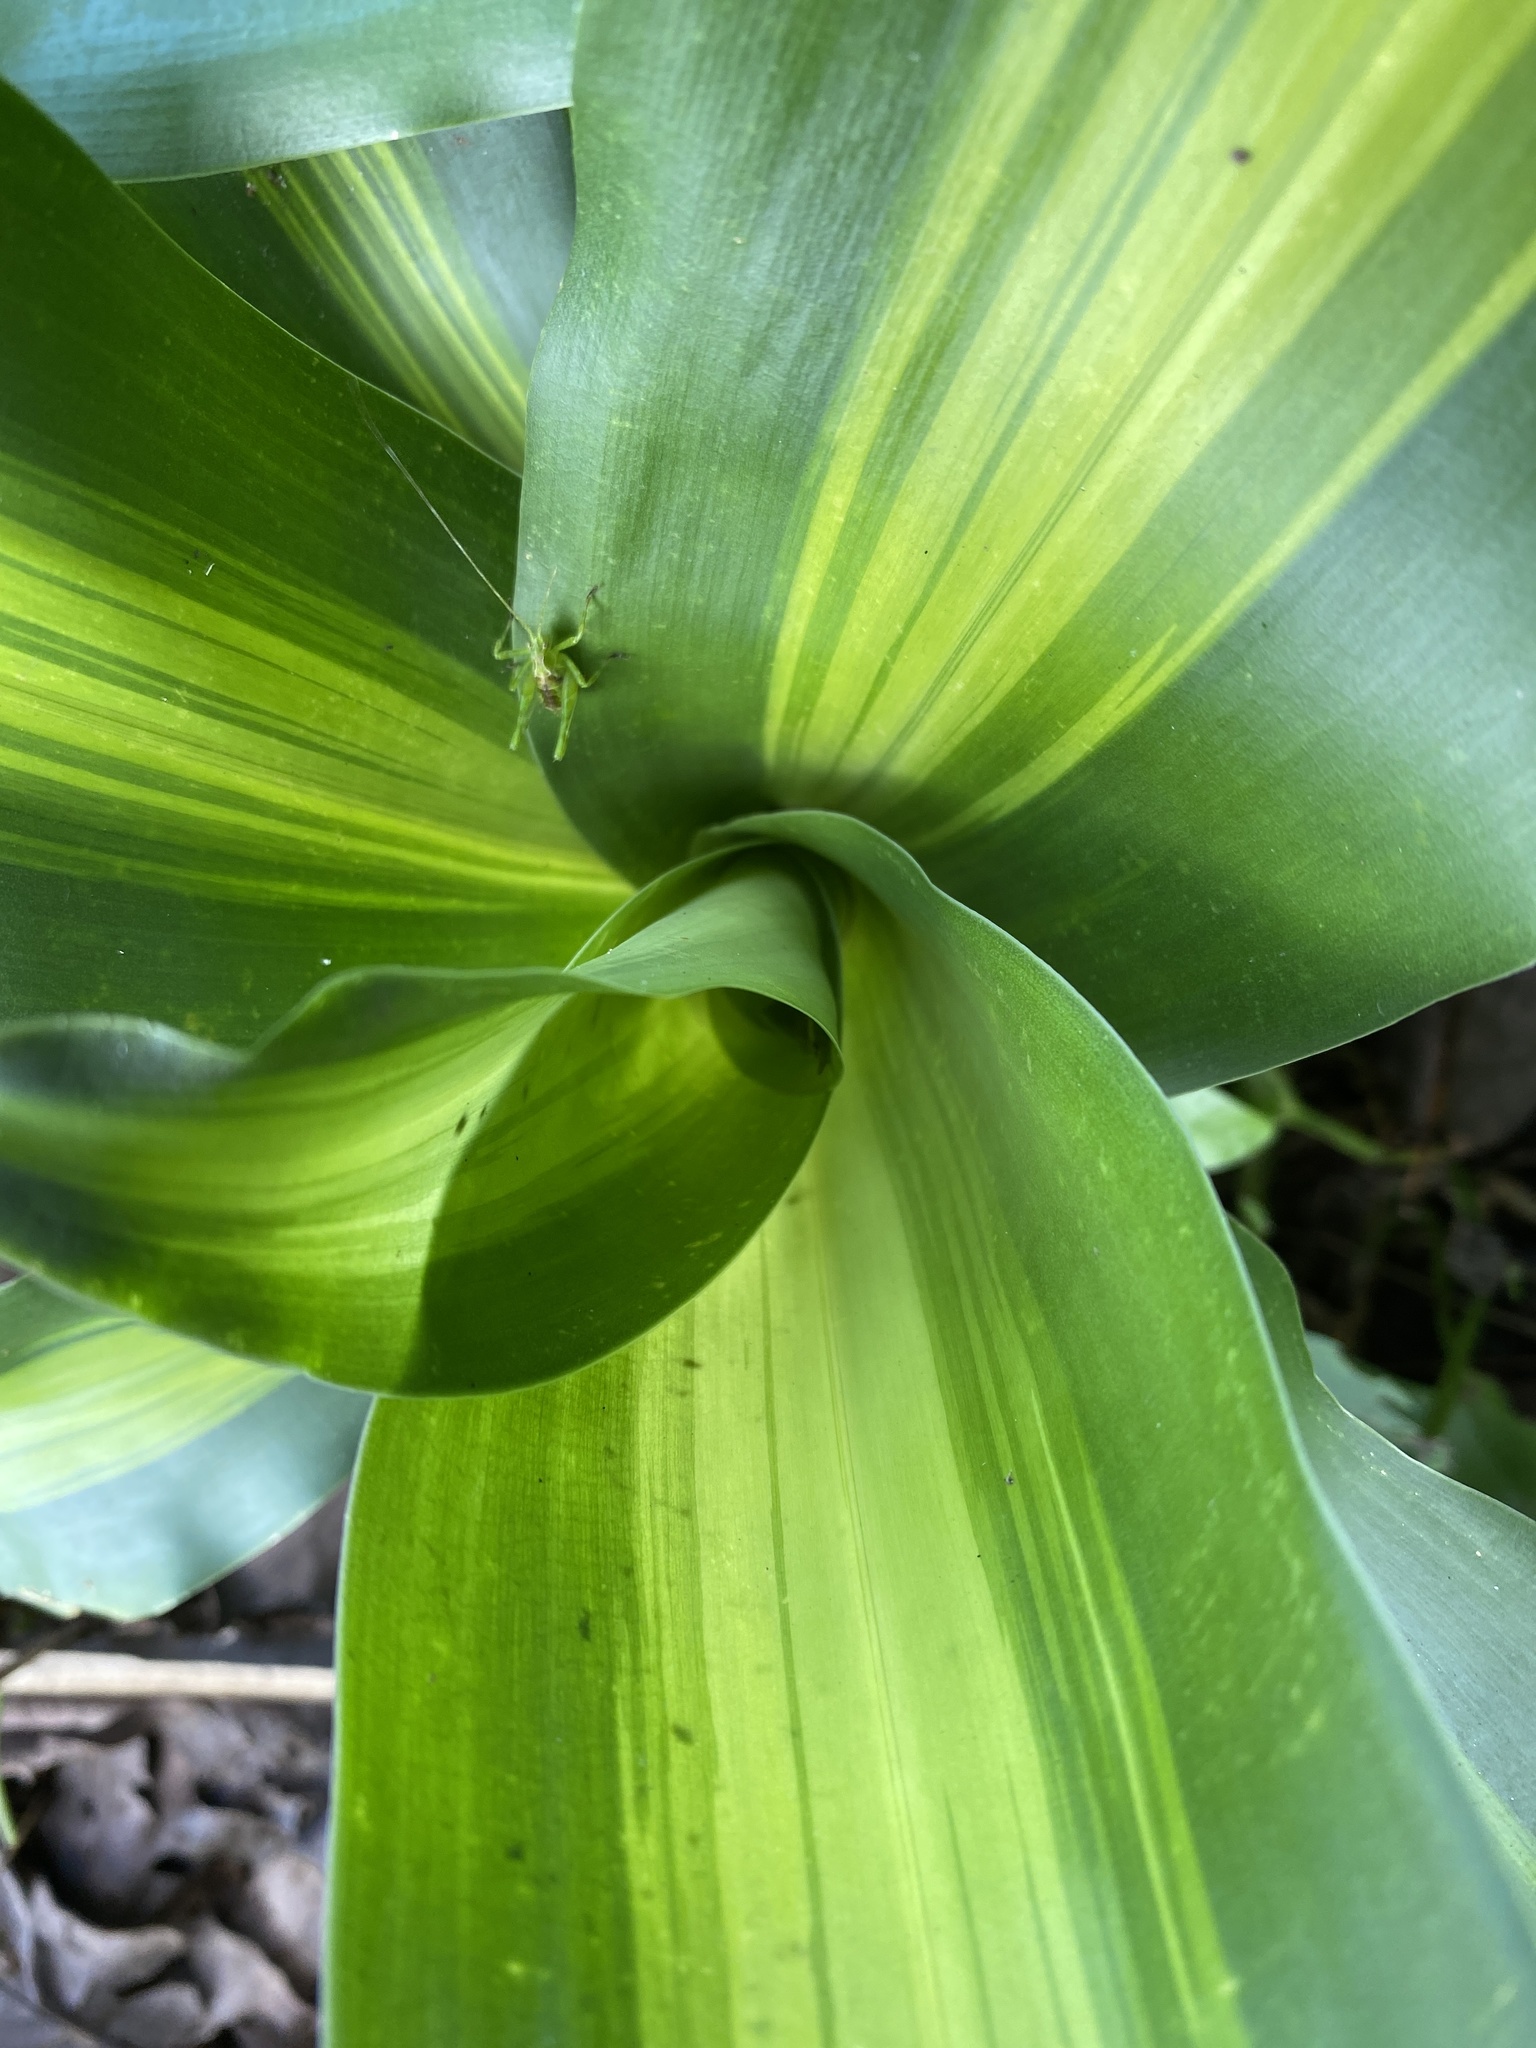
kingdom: Plantae
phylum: Tracheophyta
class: Liliopsida
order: Asparagales
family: Asparagaceae
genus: Dracaena
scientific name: Dracaena fragrans
